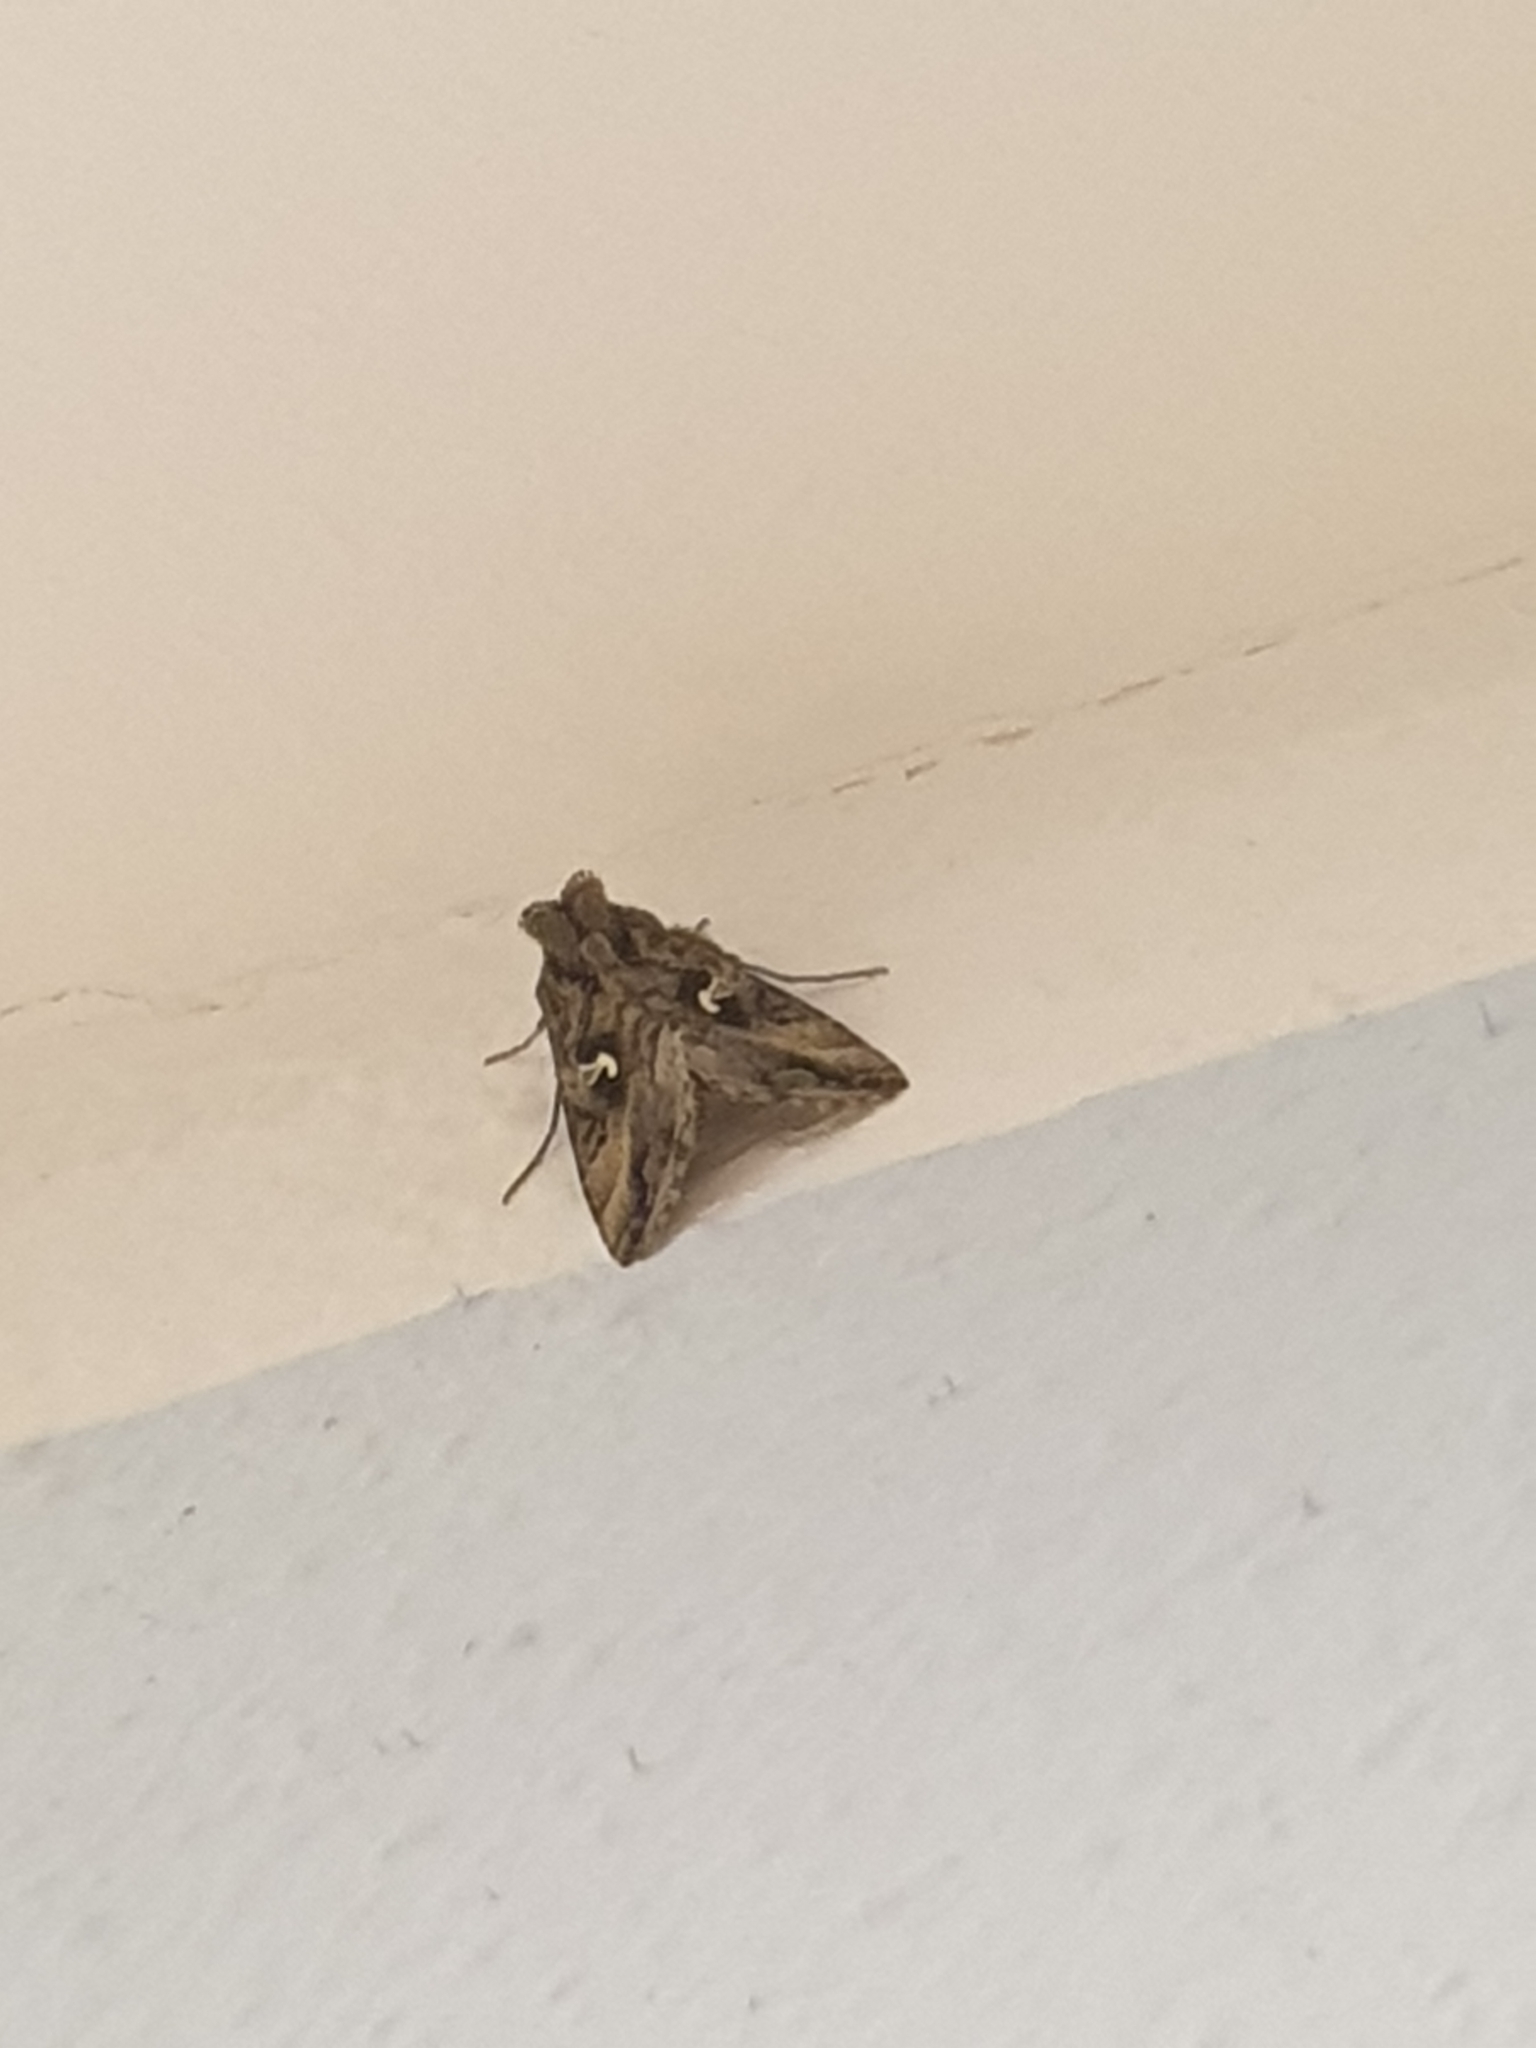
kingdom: Animalia
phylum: Arthropoda
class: Insecta
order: Lepidoptera
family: Noctuidae
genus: Autographa
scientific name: Autographa gamma
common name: Silver y
